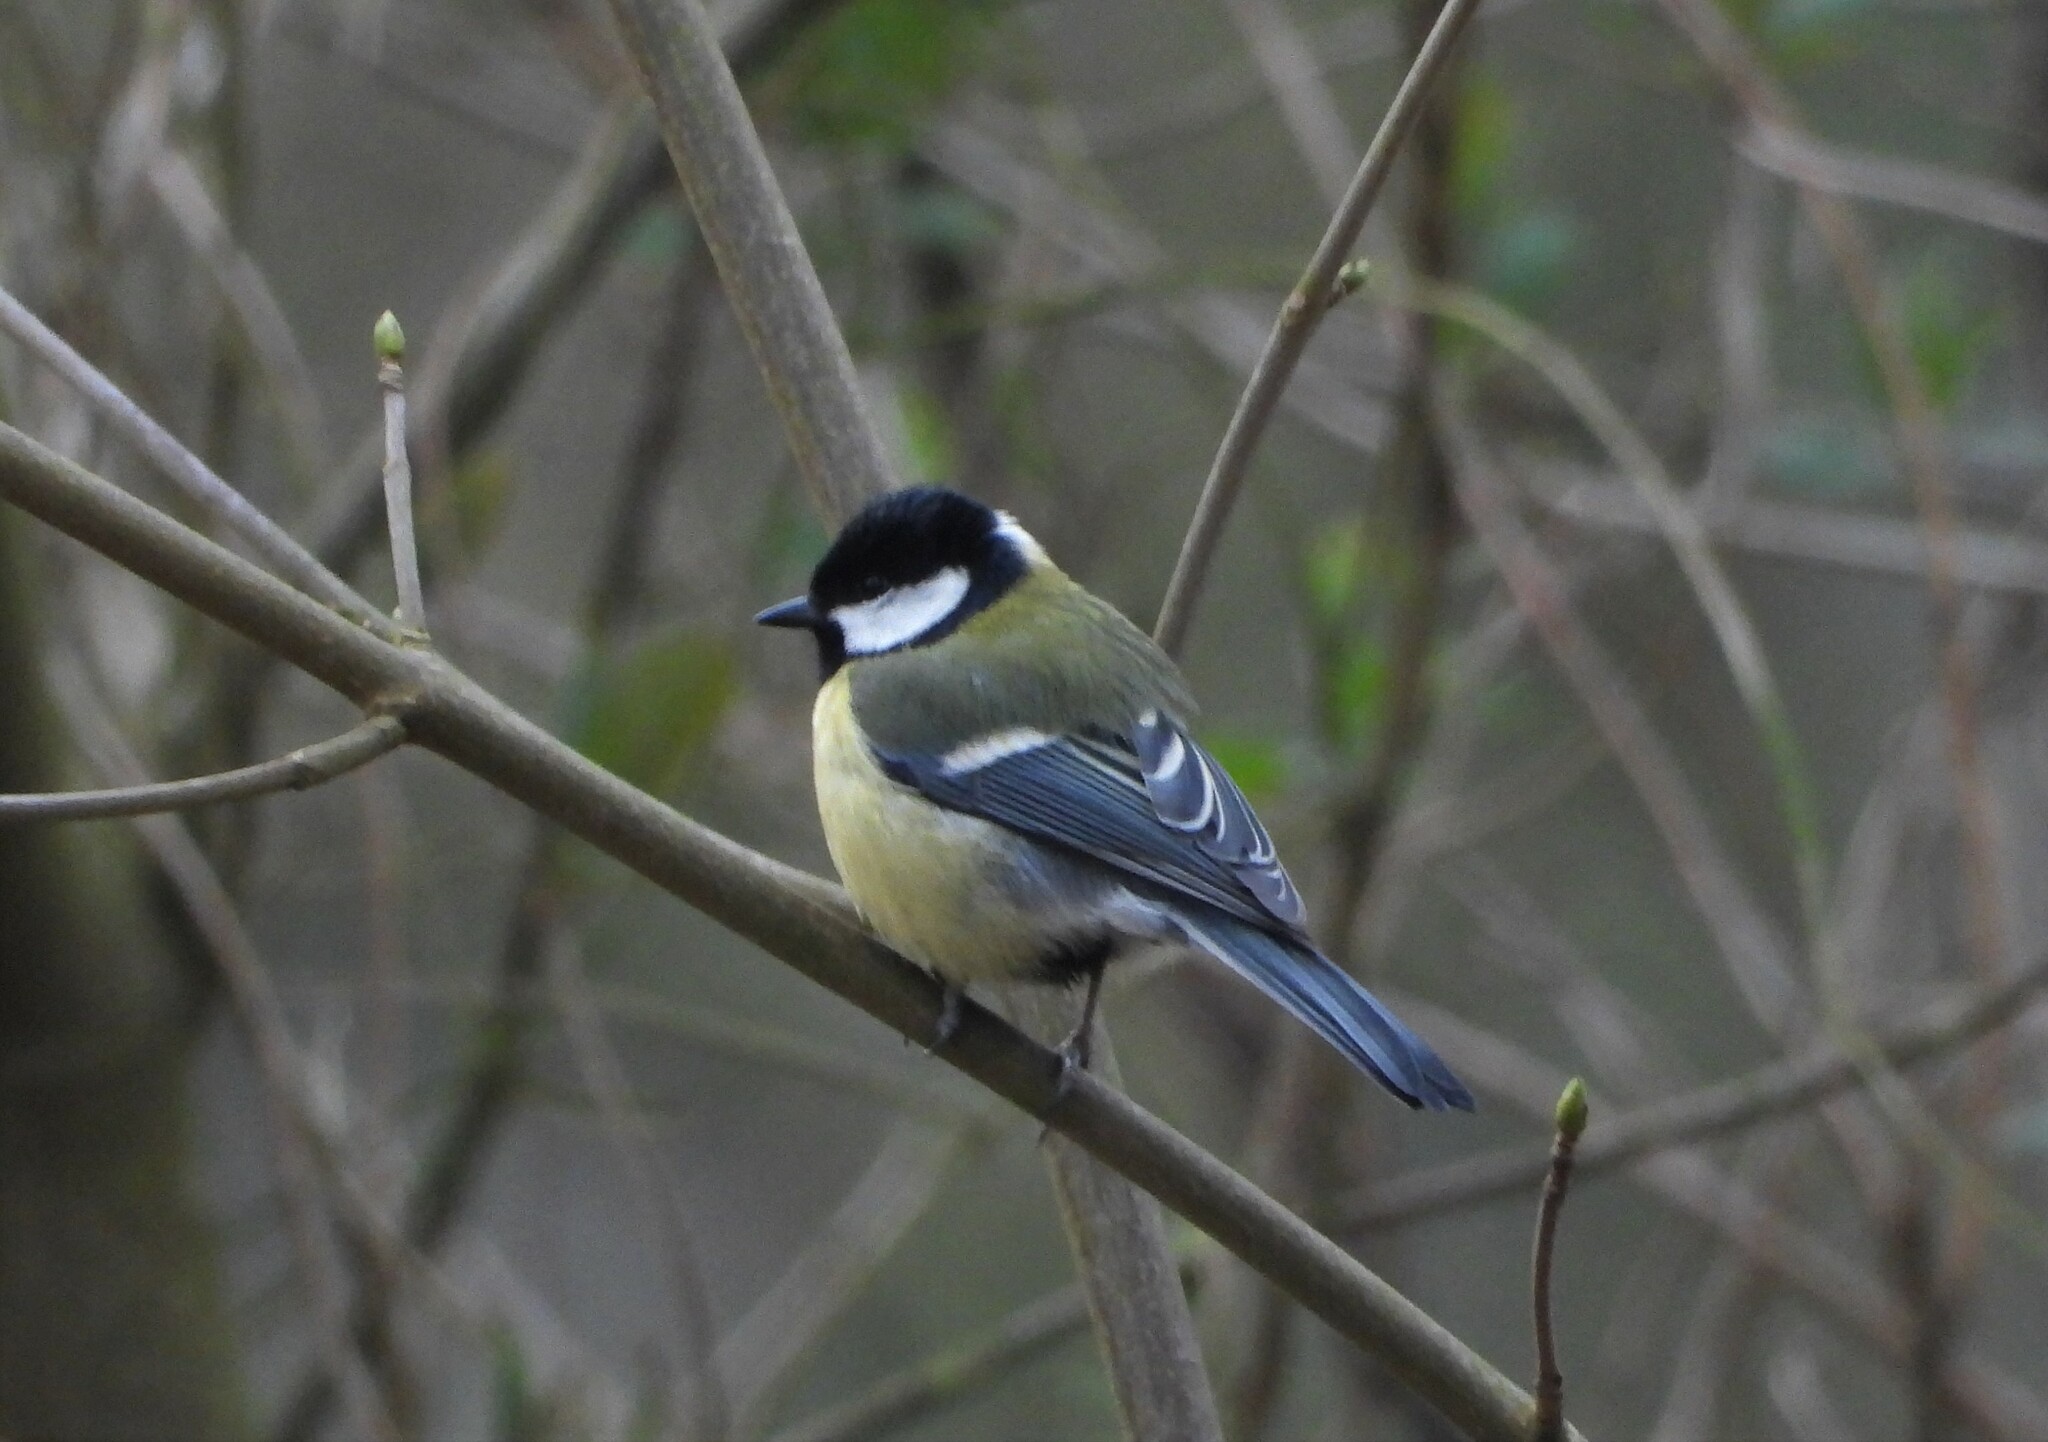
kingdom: Animalia
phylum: Chordata
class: Aves
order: Passeriformes
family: Paridae
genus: Parus
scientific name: Parus major
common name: Great tit
